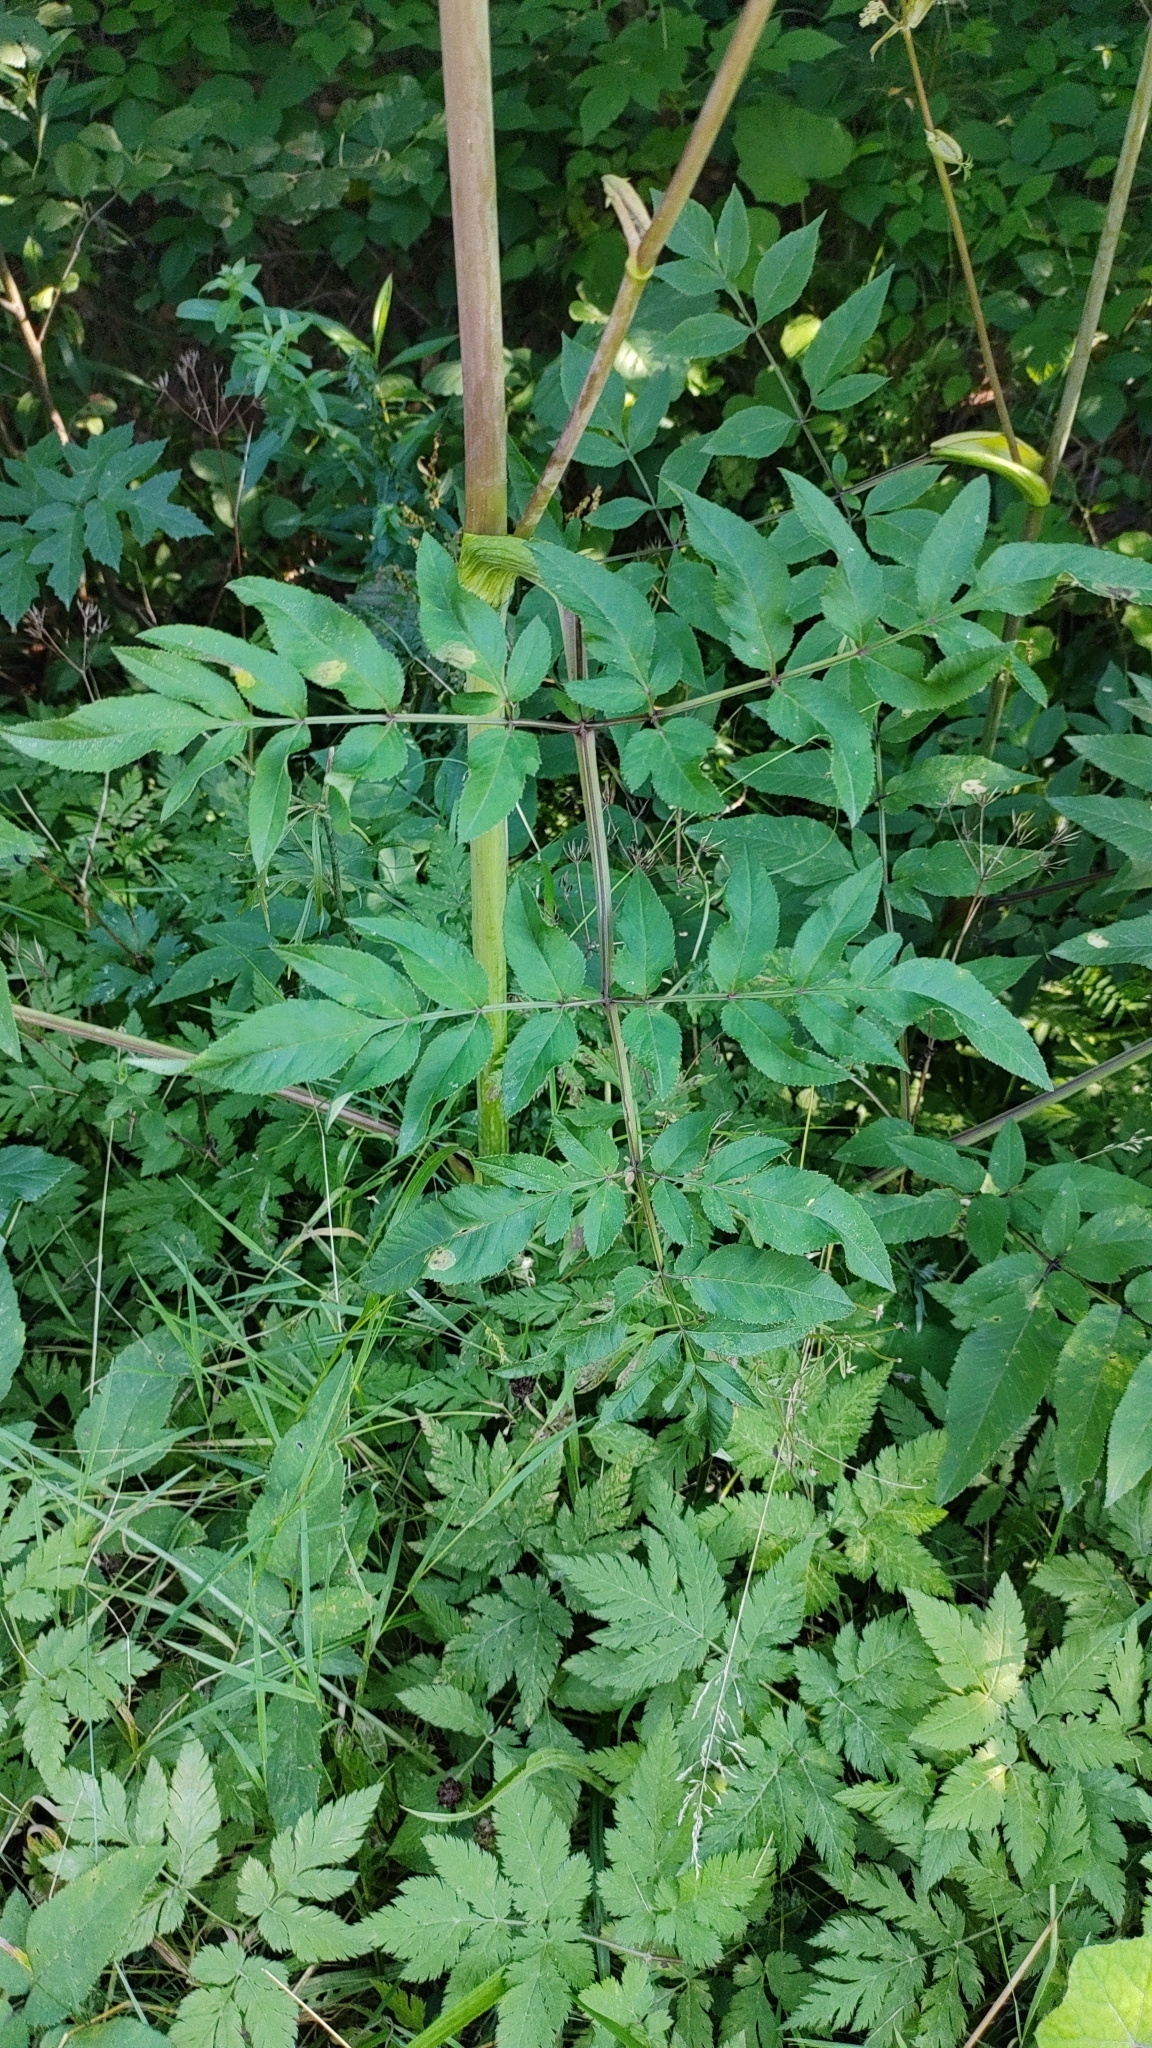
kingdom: Plantae
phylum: Tracheophyta
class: Magnoliopsida
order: Apiales
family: Apiaceae
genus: Angelica
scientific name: Angelica sylvestris
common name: Wild angelica
